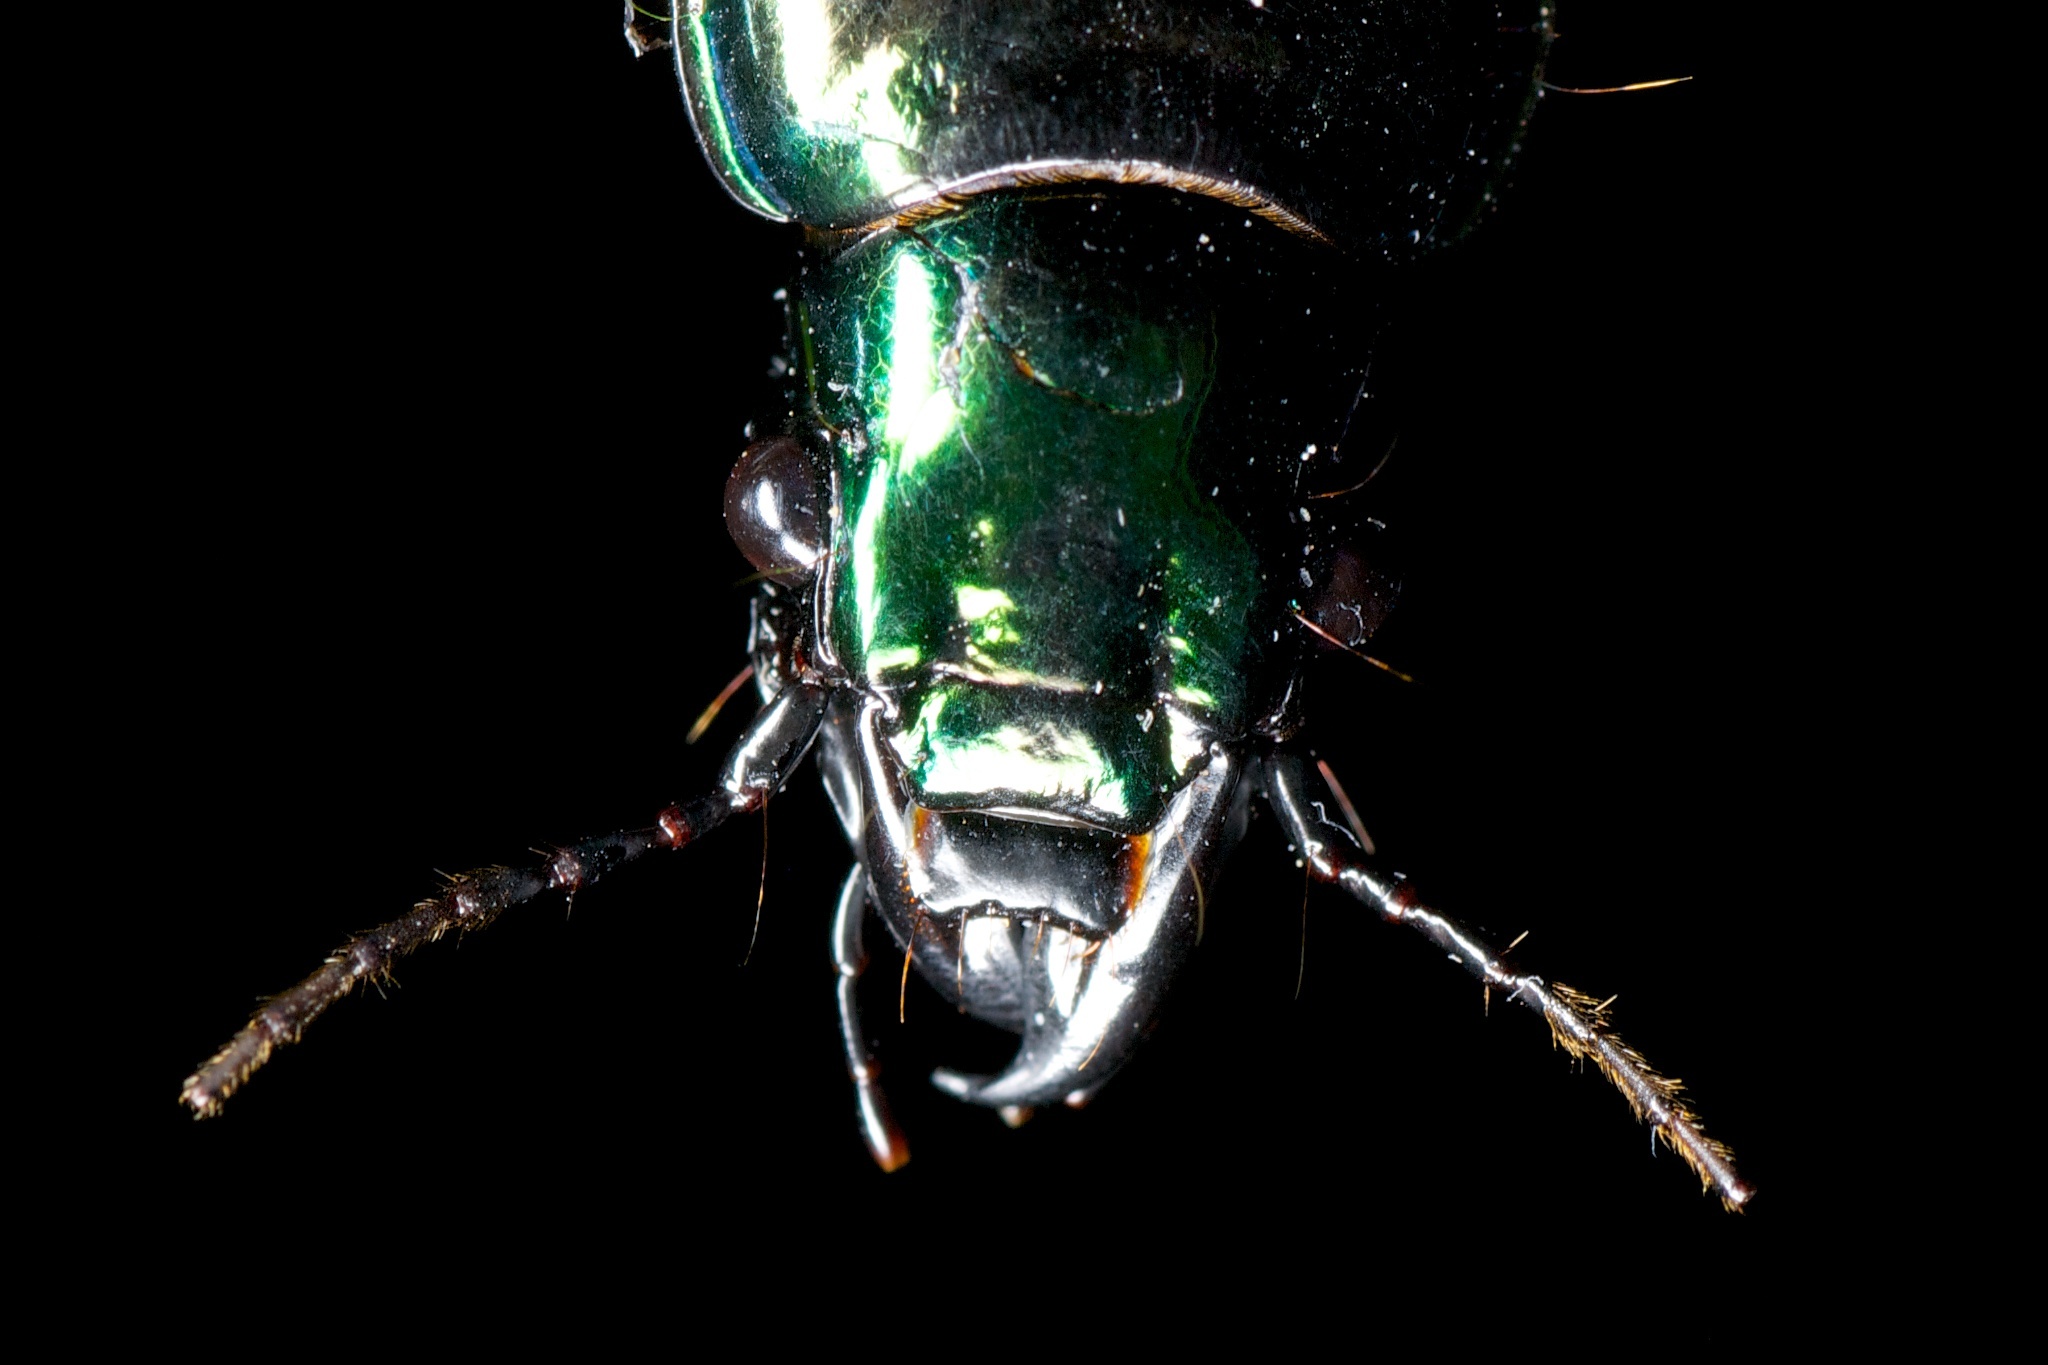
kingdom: Animalia
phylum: Arthropoda
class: Insecta
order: Coleoptera
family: Carabidae
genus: Megadromus
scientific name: Megadromus antarcticus
